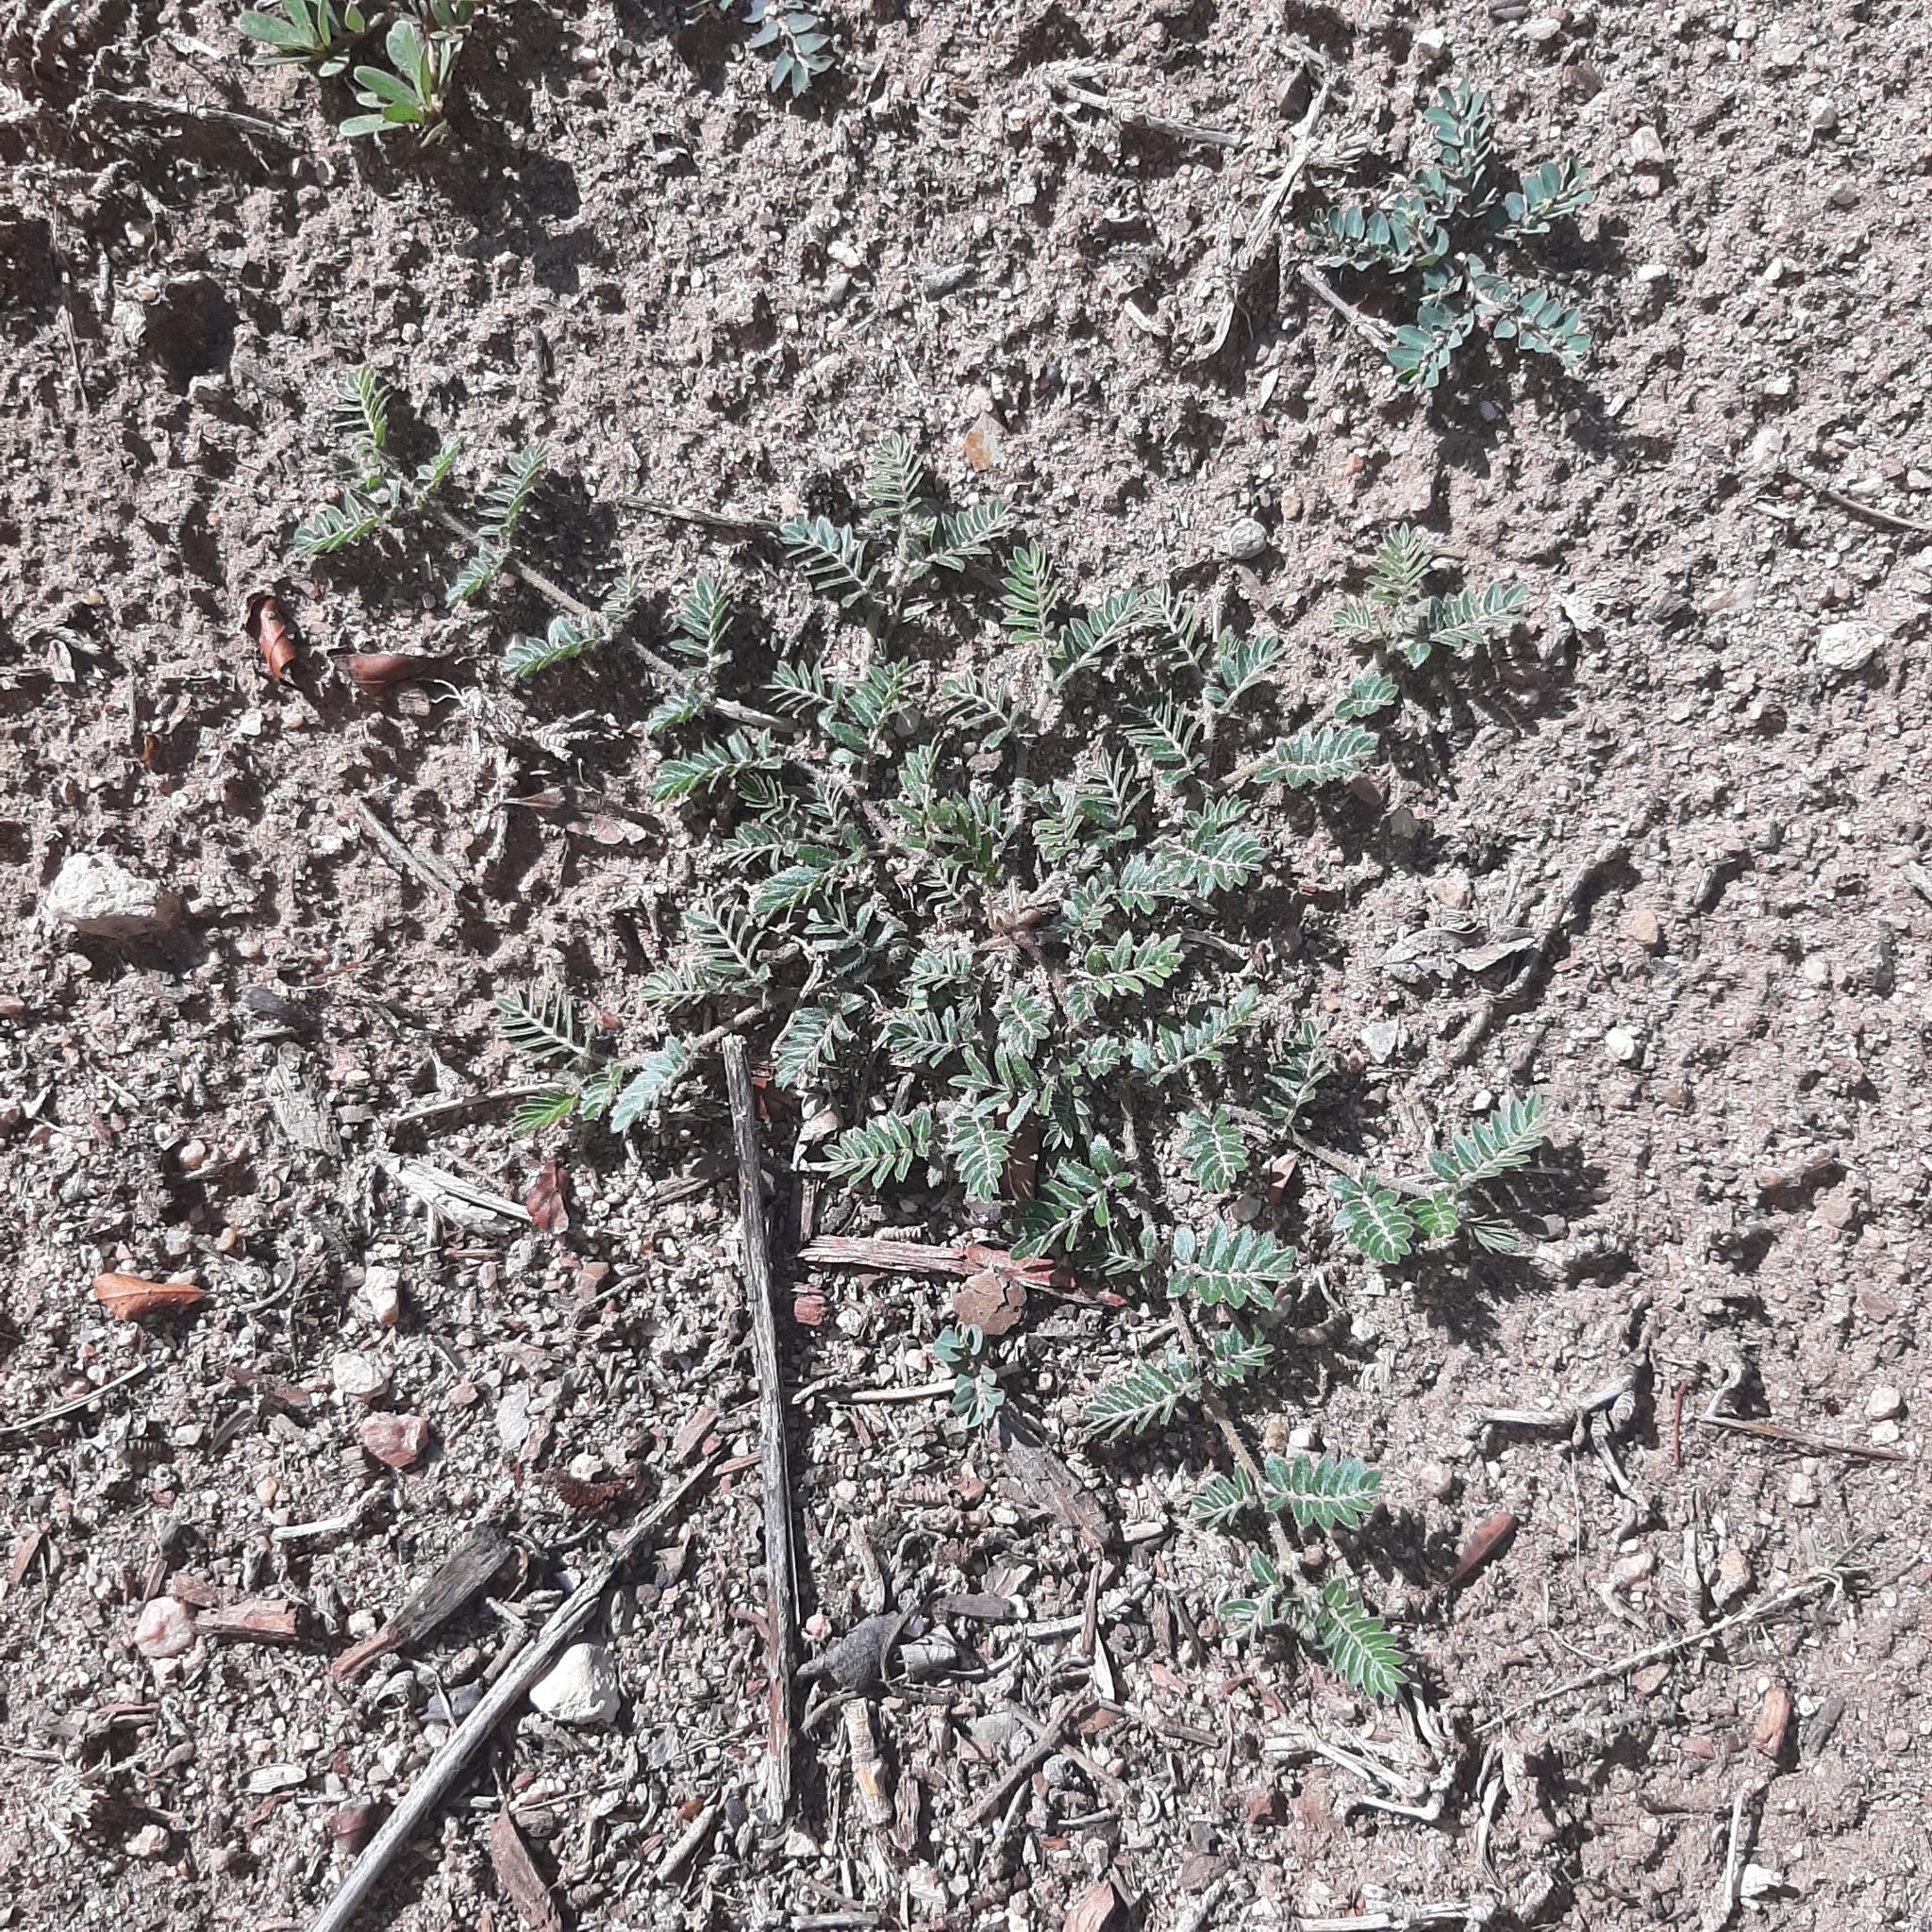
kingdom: Plantae
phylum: Tracheophyta
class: Magnoliopsida
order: Zygophyllales
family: Zygophyllaceae
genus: Tribulus
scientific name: Tribulus terrestris
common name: Puncturevine
